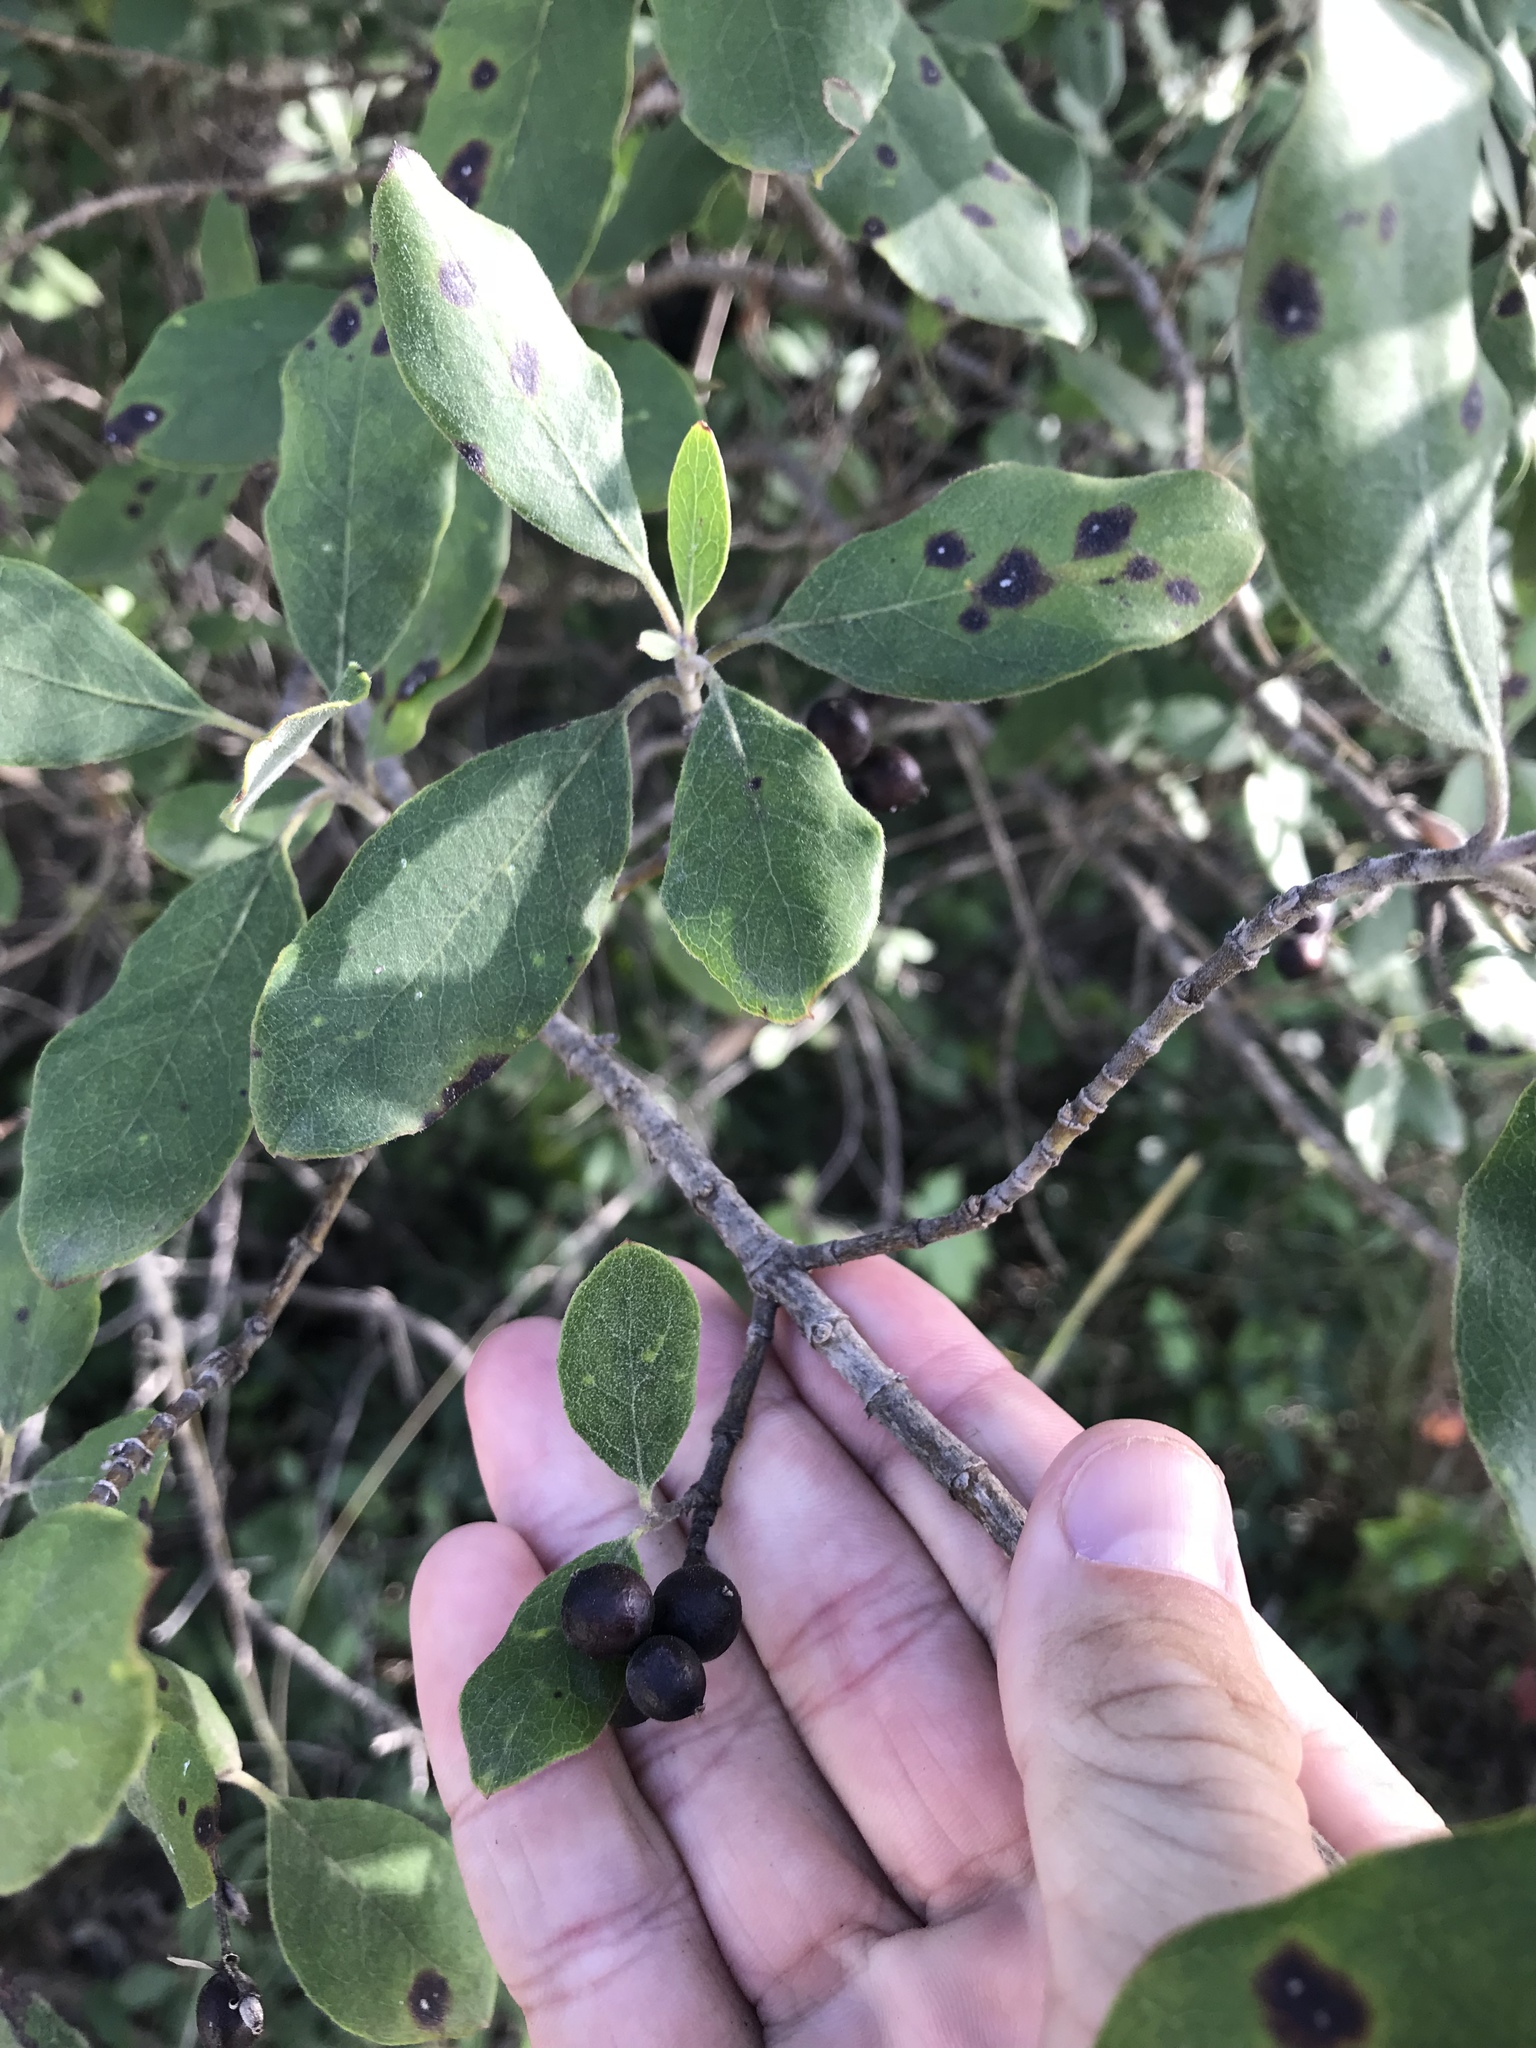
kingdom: Plantae
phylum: Tracheophyta
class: Magnoliopsida
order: Garryales
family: Garryaceae
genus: Garrya
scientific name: Garrya lindheimeri
